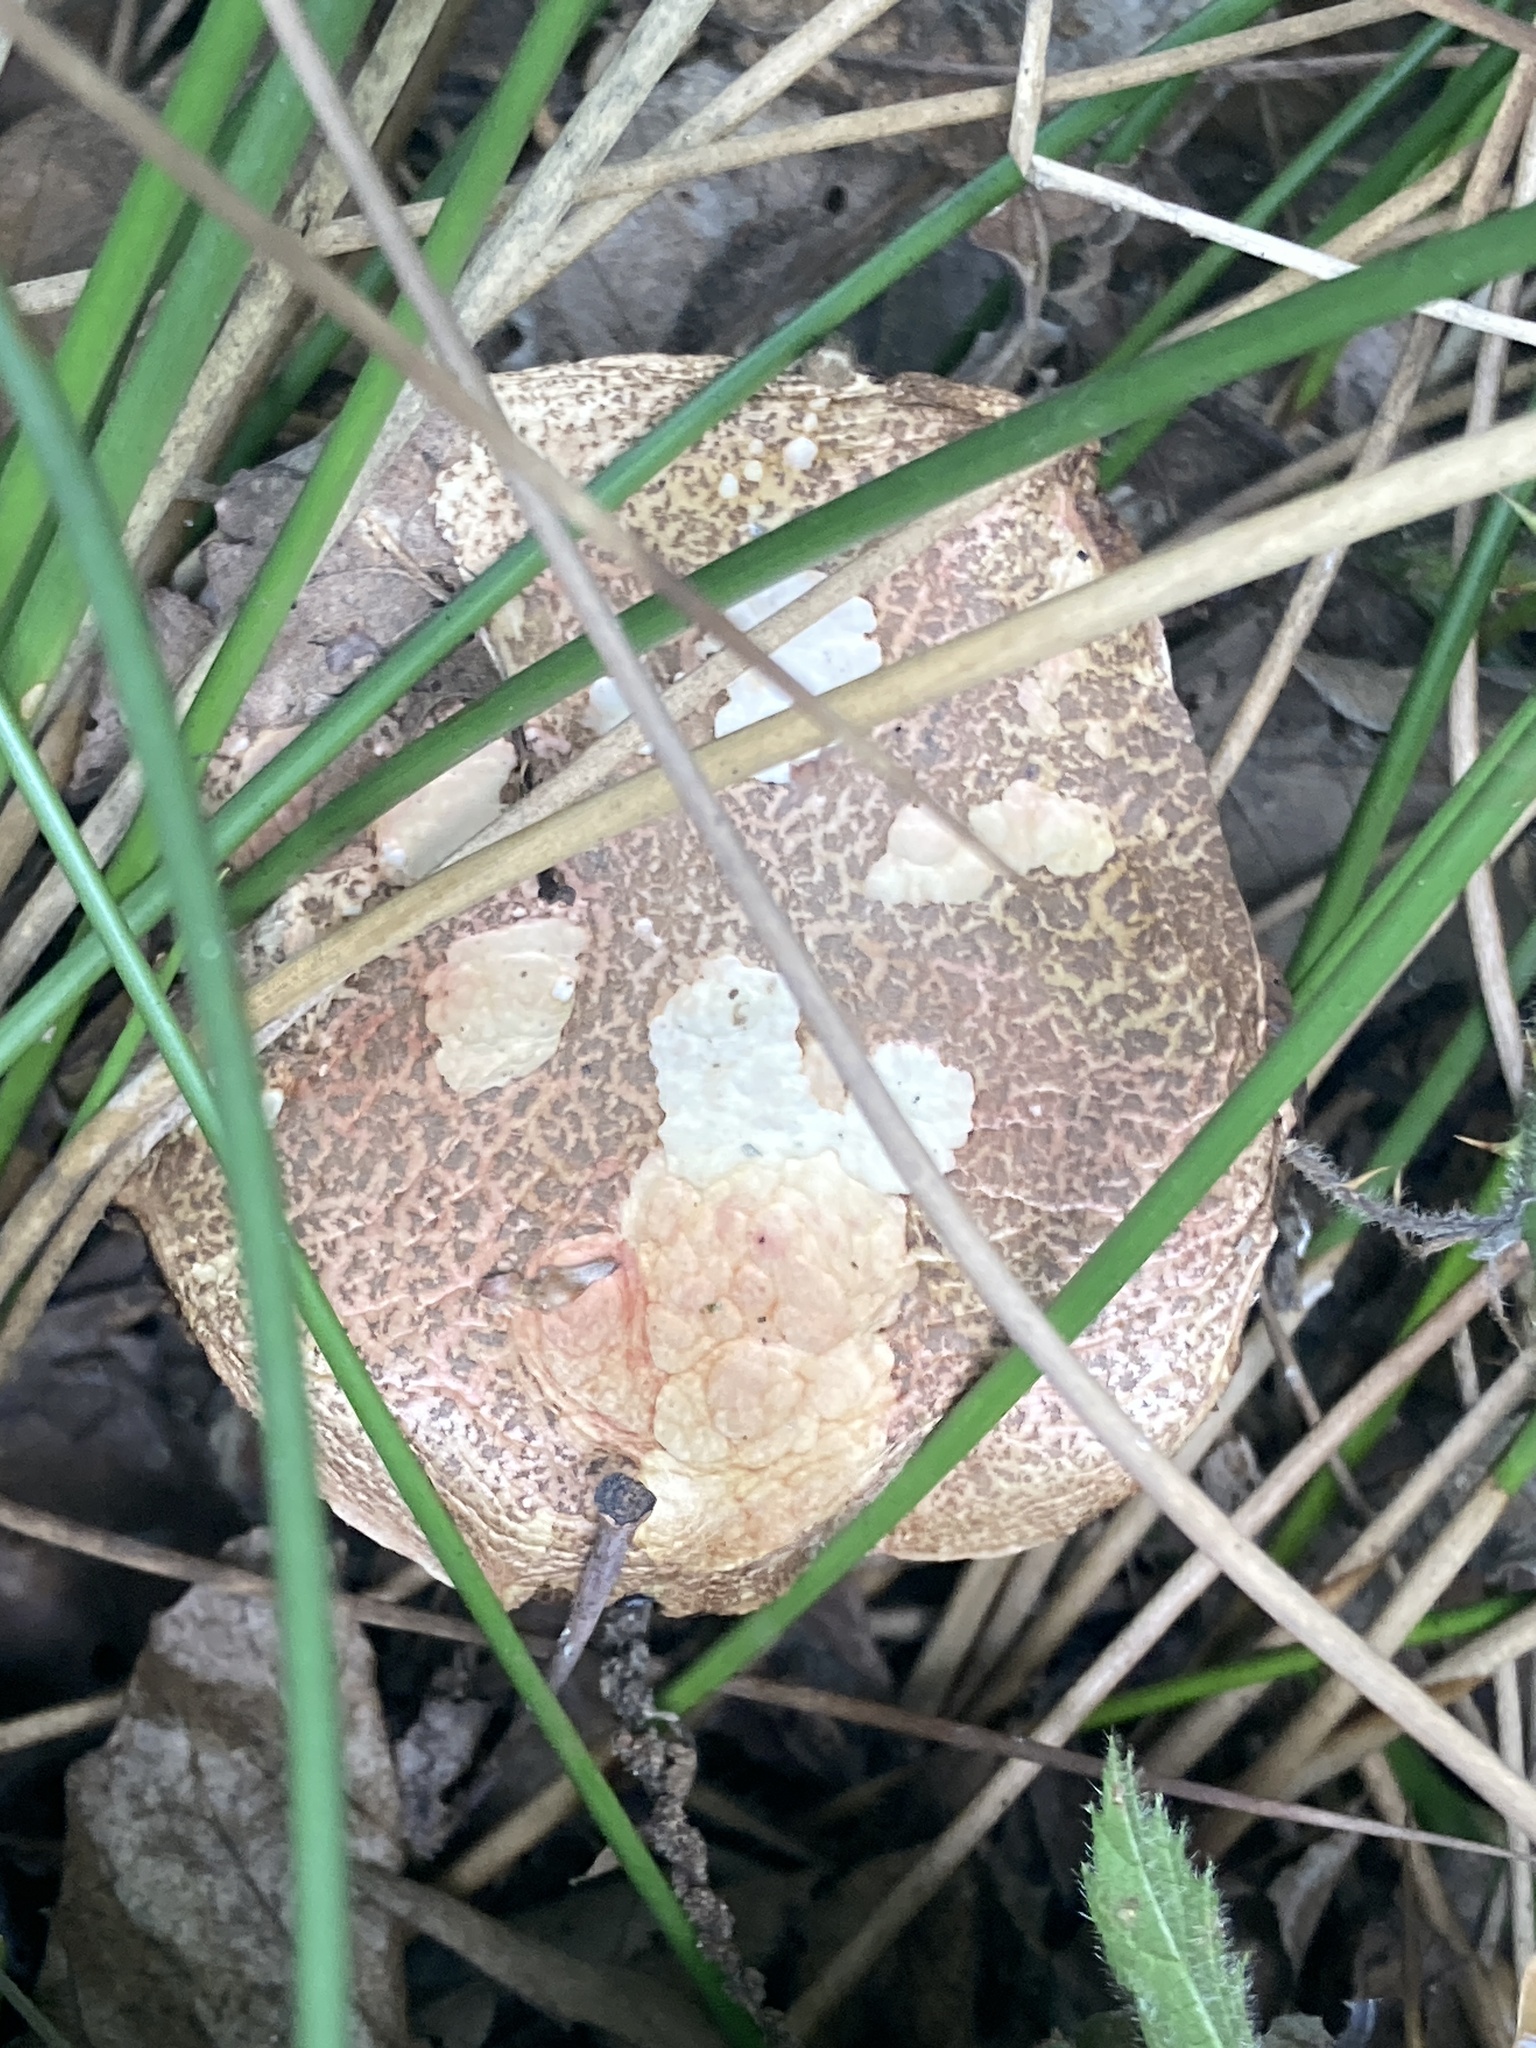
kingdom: Fungi
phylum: Basidiomycota
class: Agaricomycetes
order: Boletales
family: Boletaceae
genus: Xerocomellus
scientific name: Xerocomellus chrysenteron
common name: Red-cracking bolete
